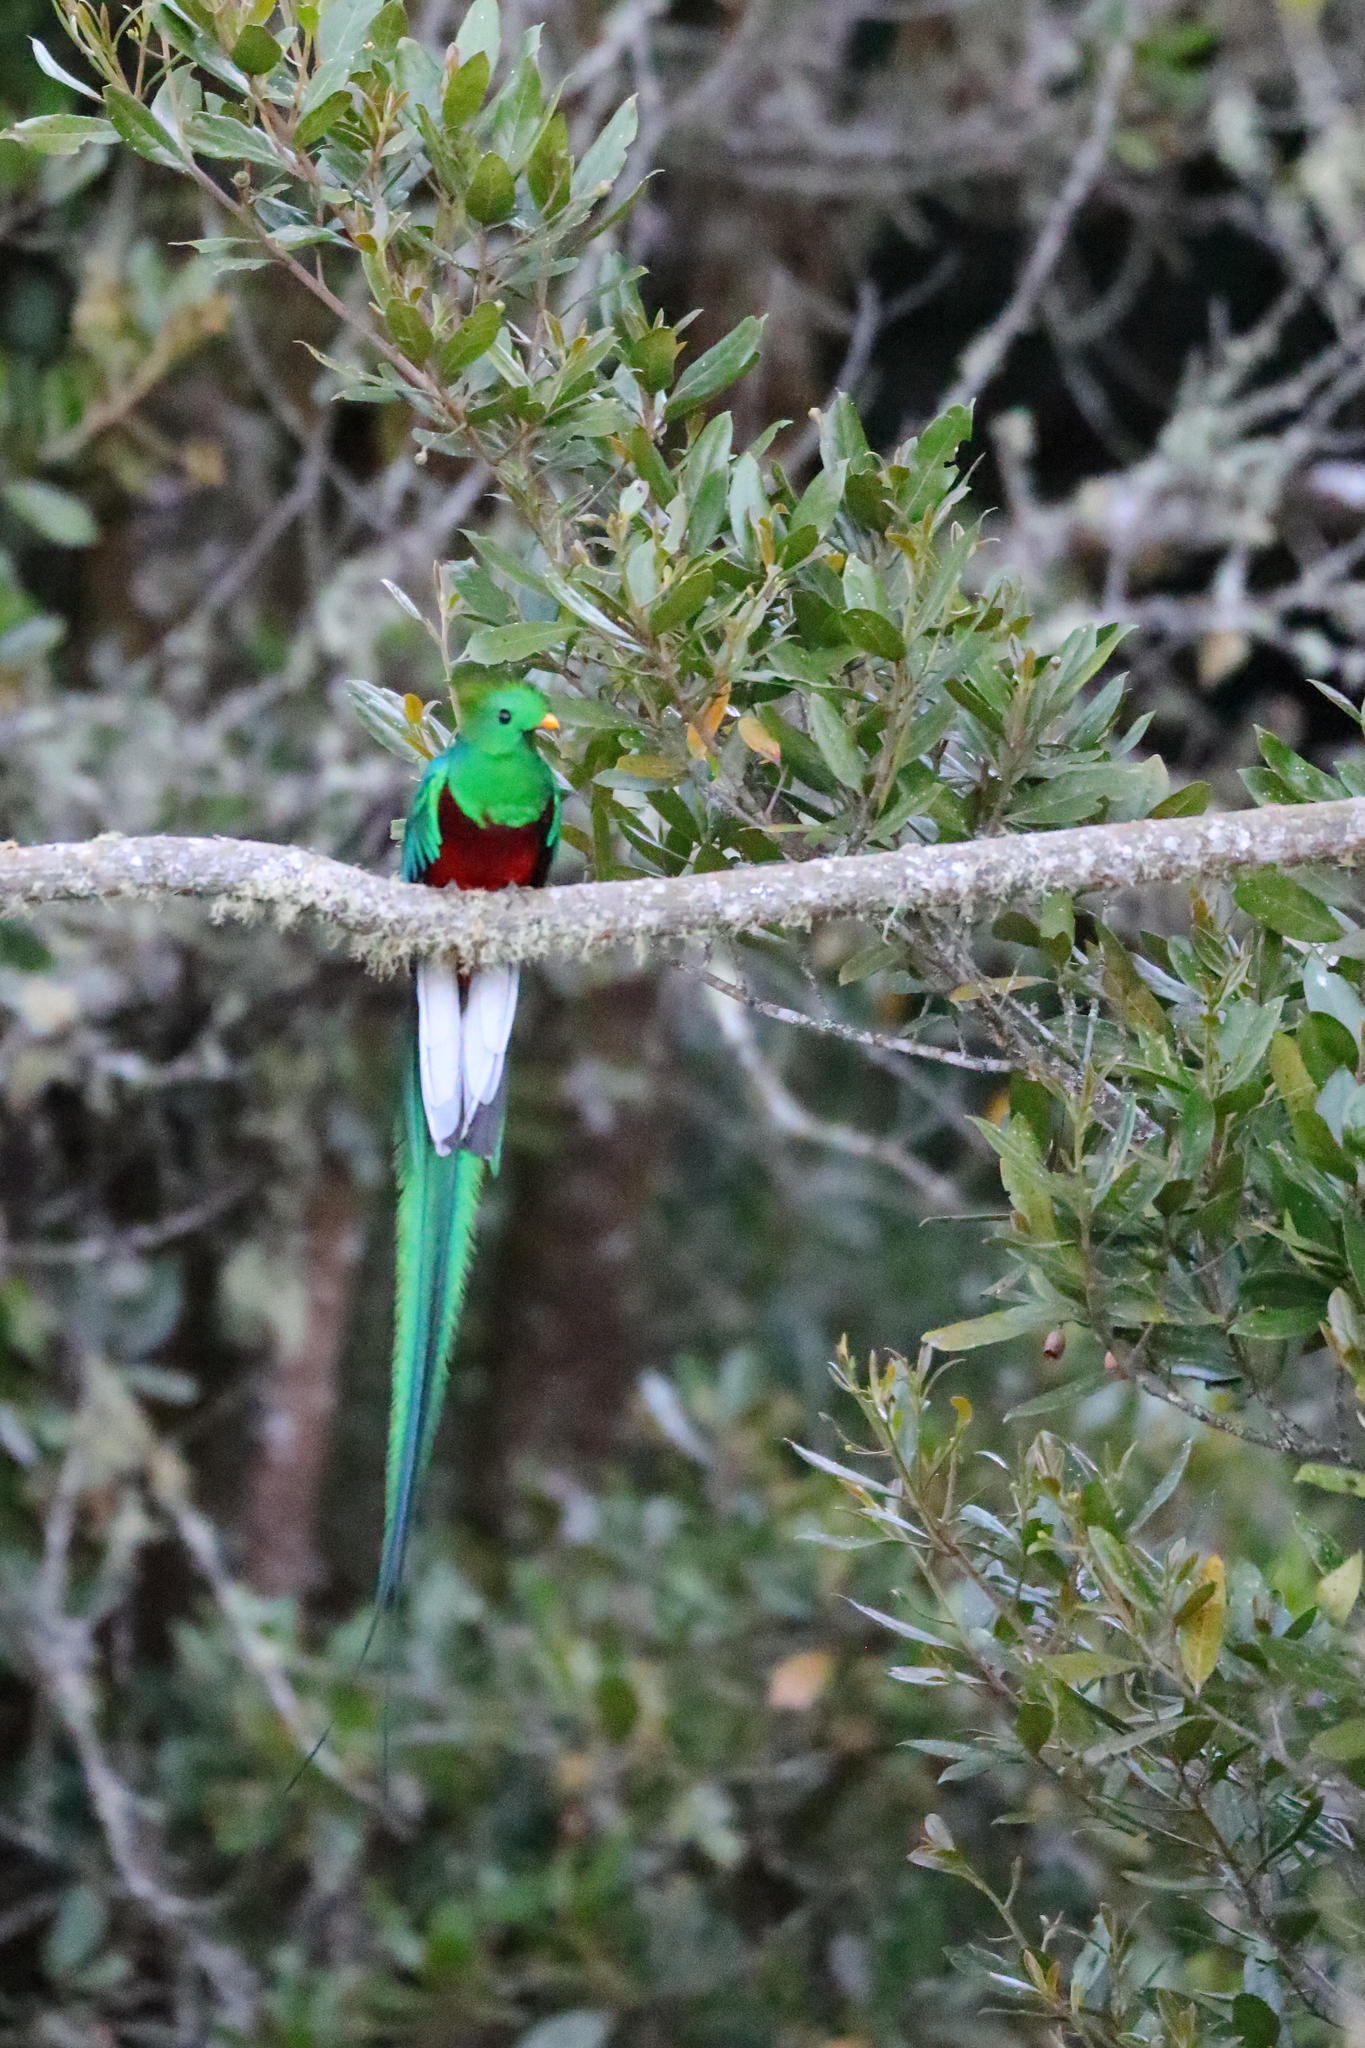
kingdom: Animalia
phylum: Chordata
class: Aves
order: Trogoniformes
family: Trogonidae
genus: Pharomachrus
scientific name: Pharomachrus mocinno
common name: Resplendent quetzal
